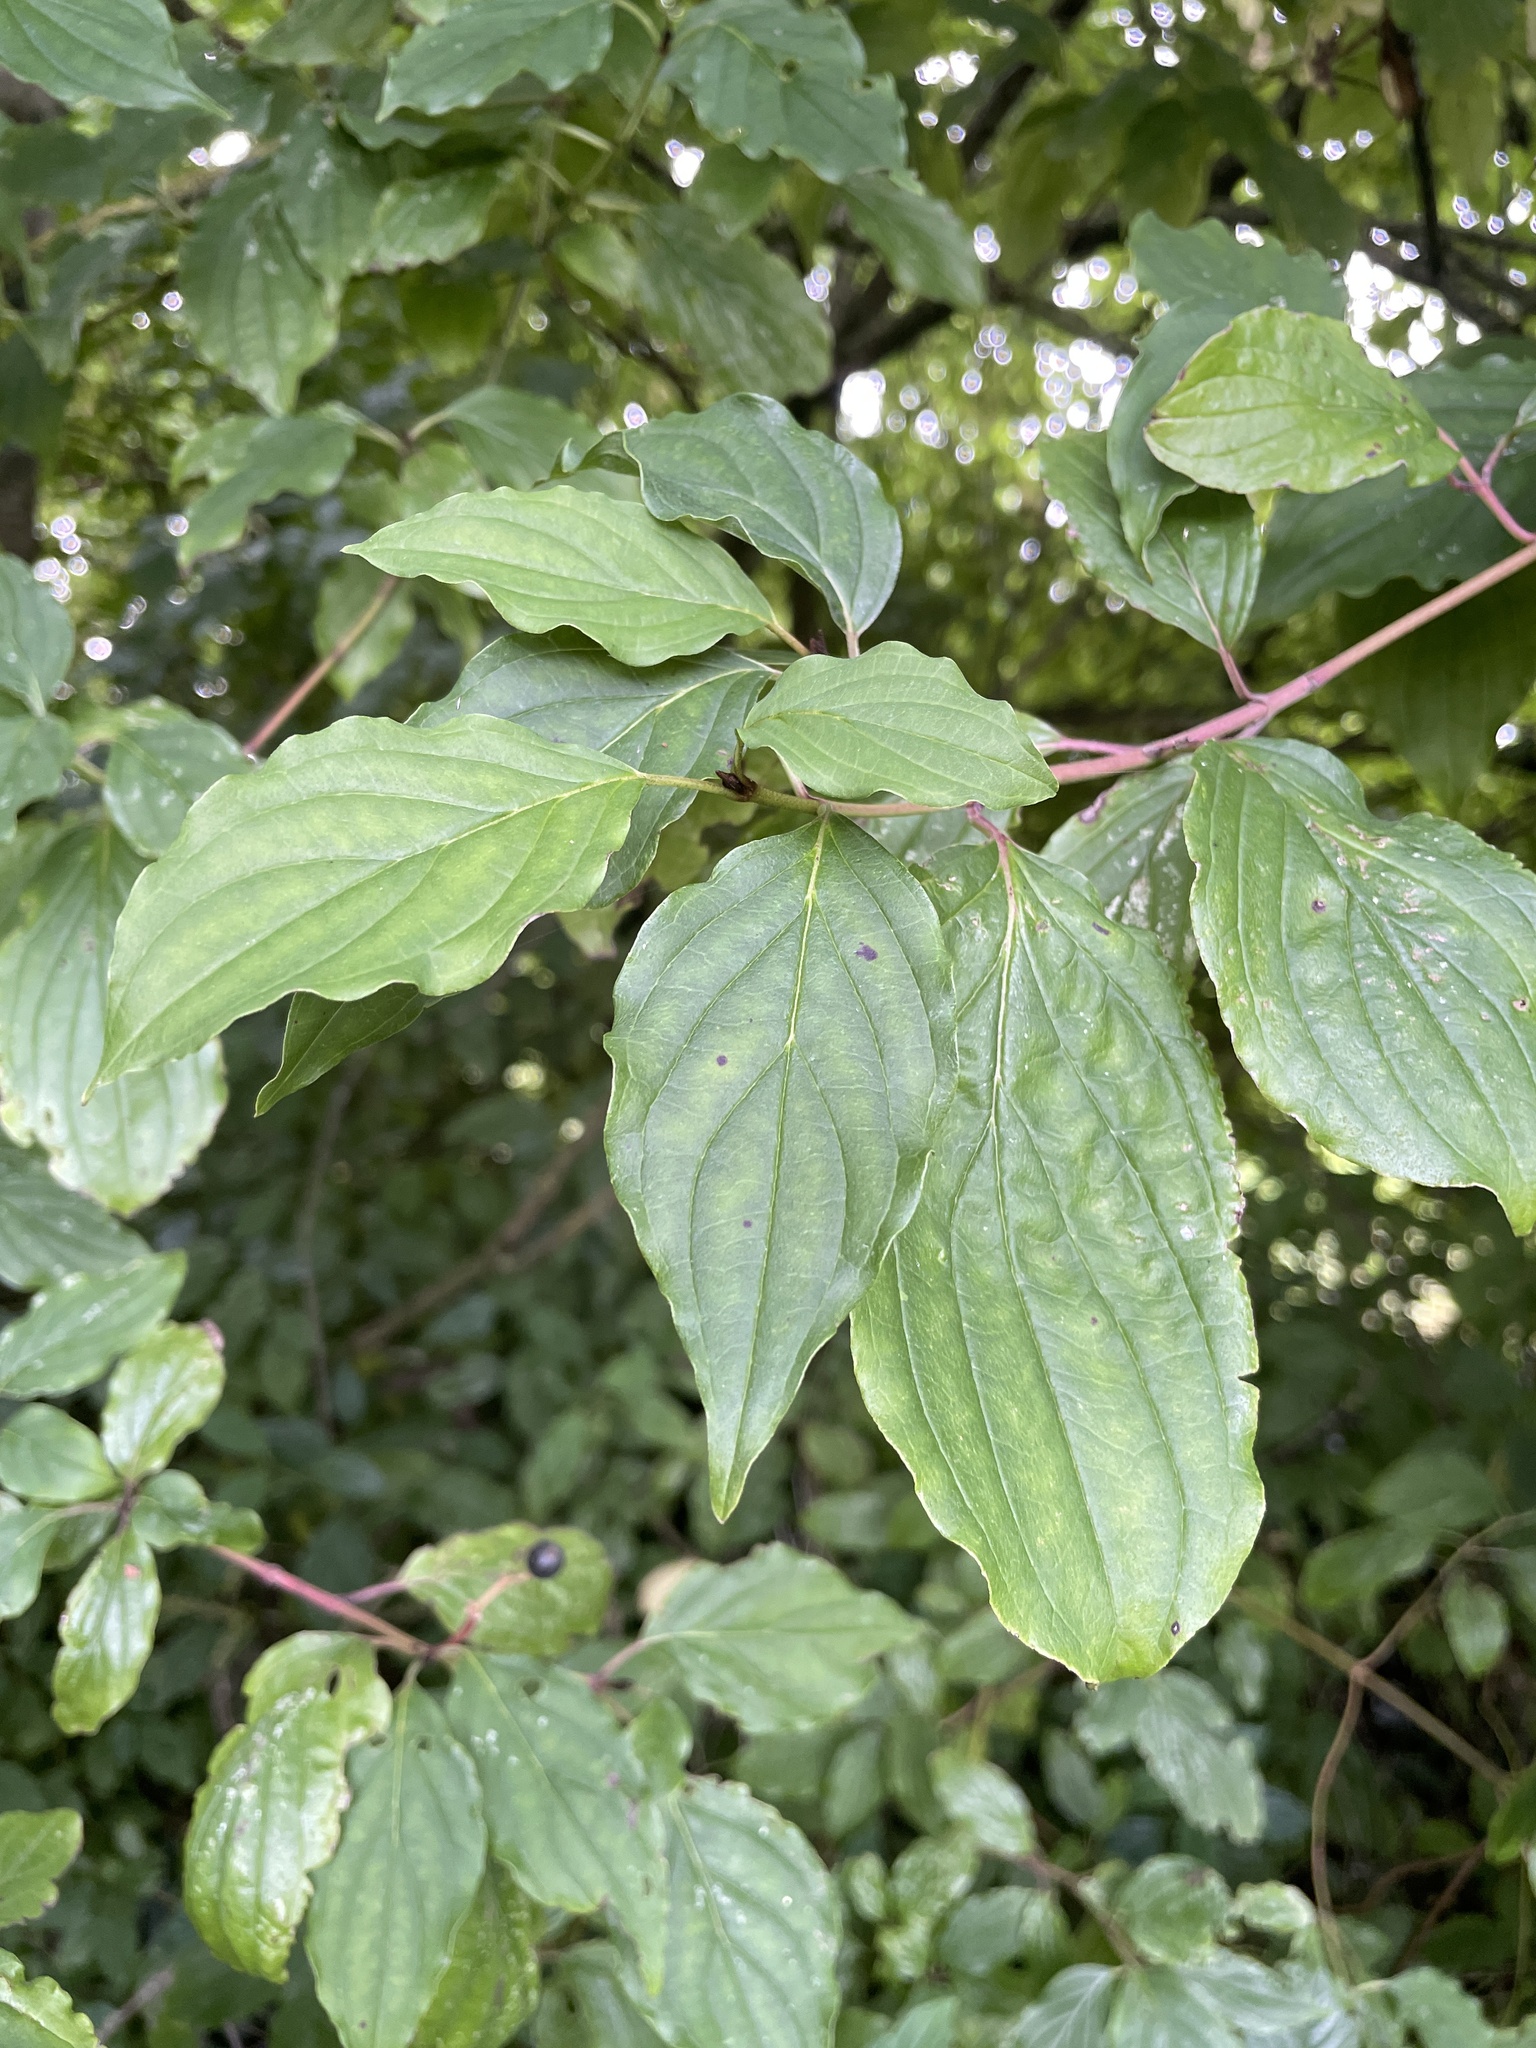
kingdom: Plantae
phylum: Tracheophyta
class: Magnoliopsida
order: Cornales
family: Cornaceae
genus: Cornus
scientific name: Cornus sanguinea
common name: Dogwood
